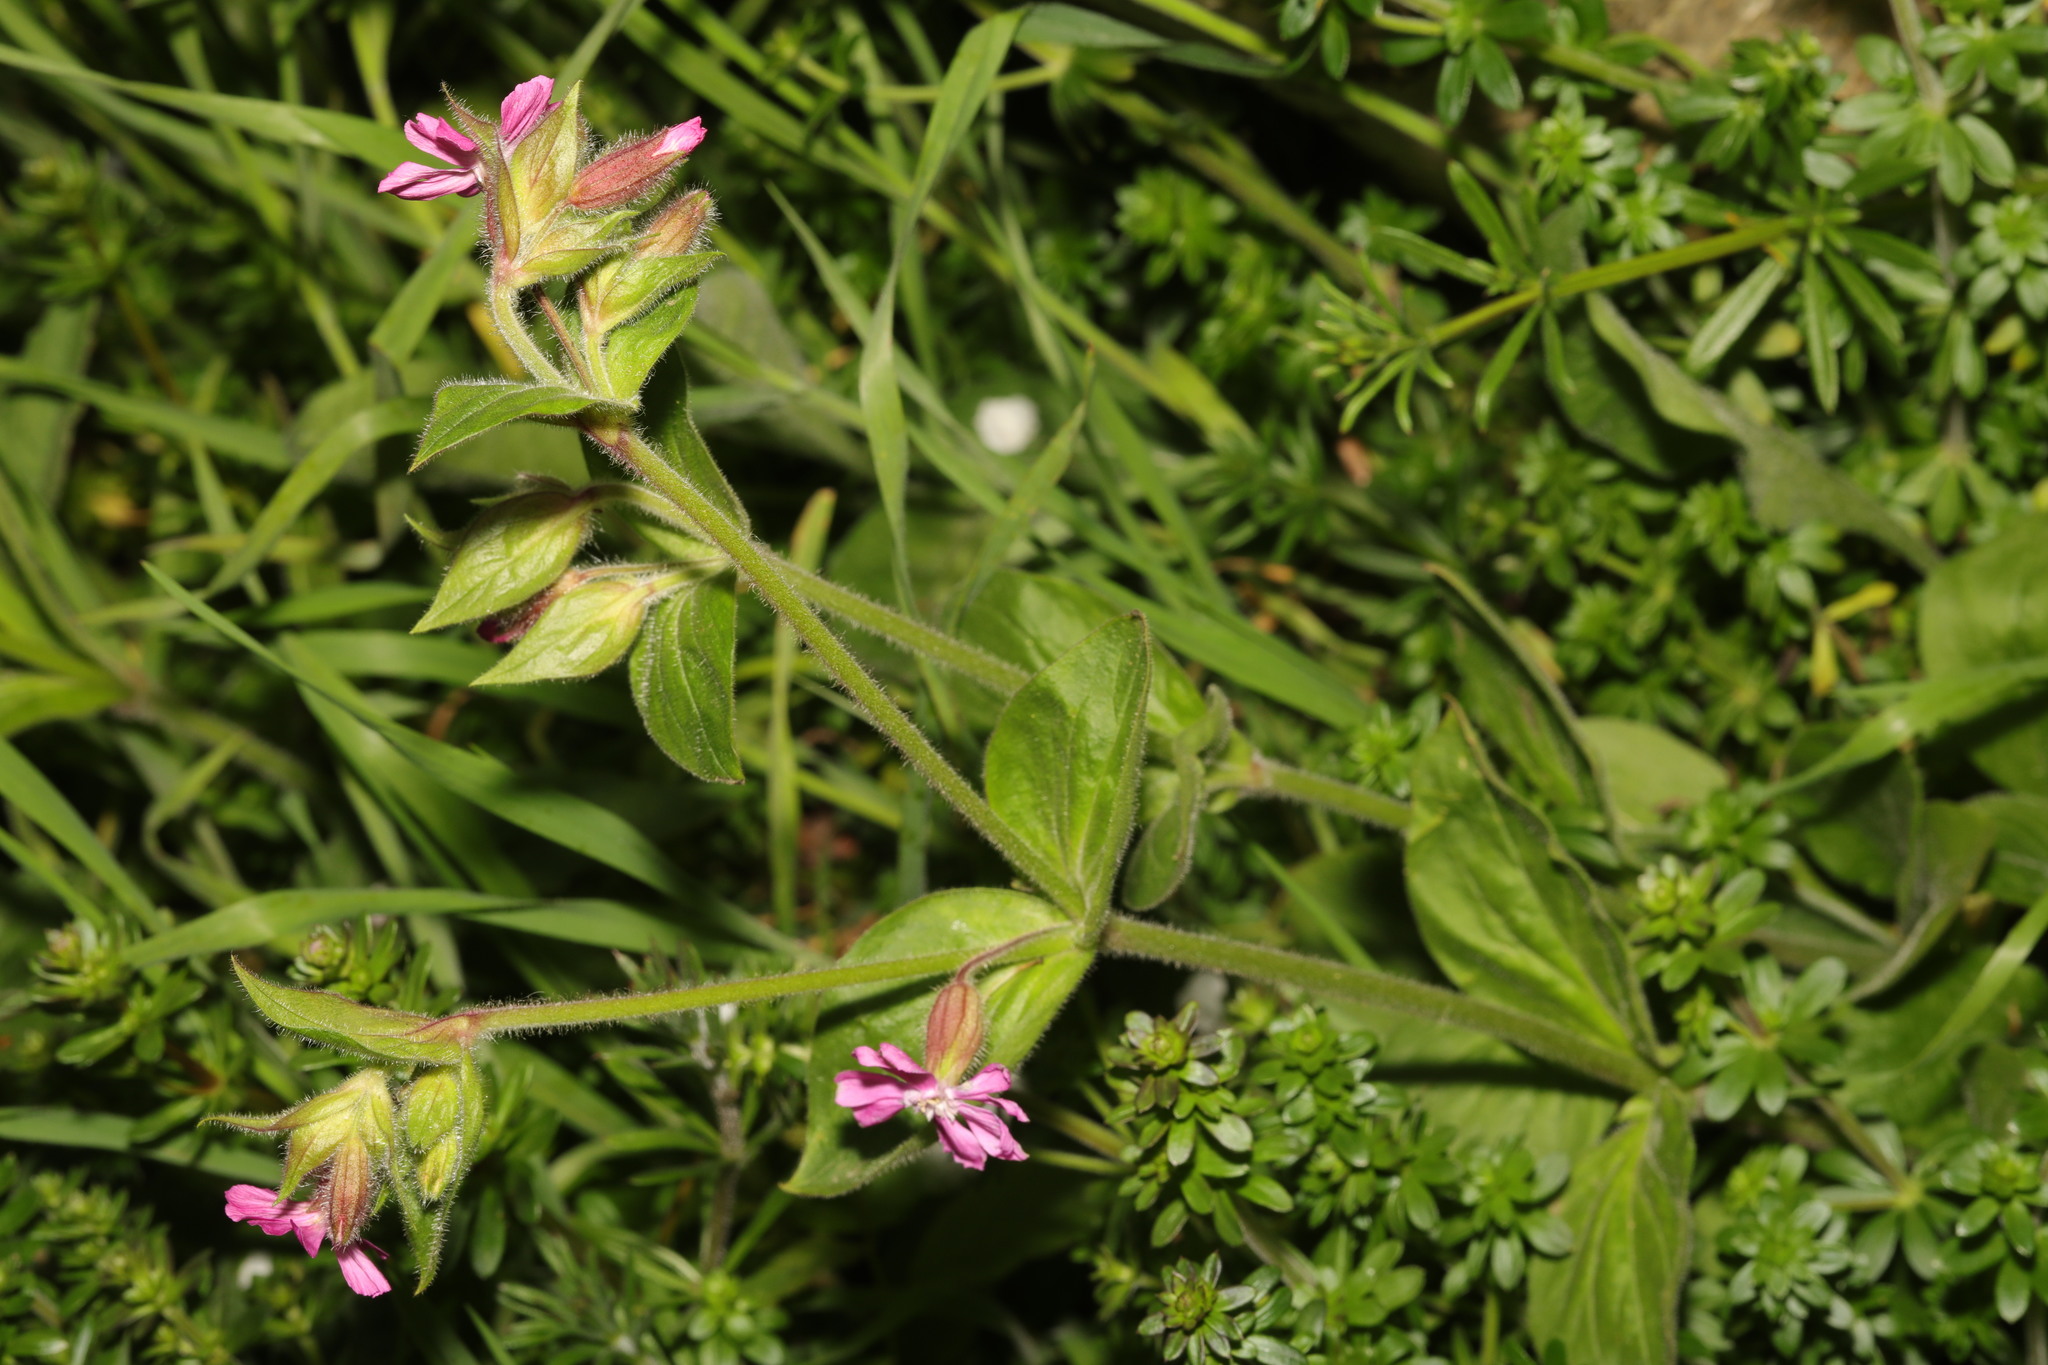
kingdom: Plantae
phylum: Tracheophyta
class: Magnoliopsida
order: Caryophyllales
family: Caryophyllaceae
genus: Silene
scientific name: Silene dioica
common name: Red campion
